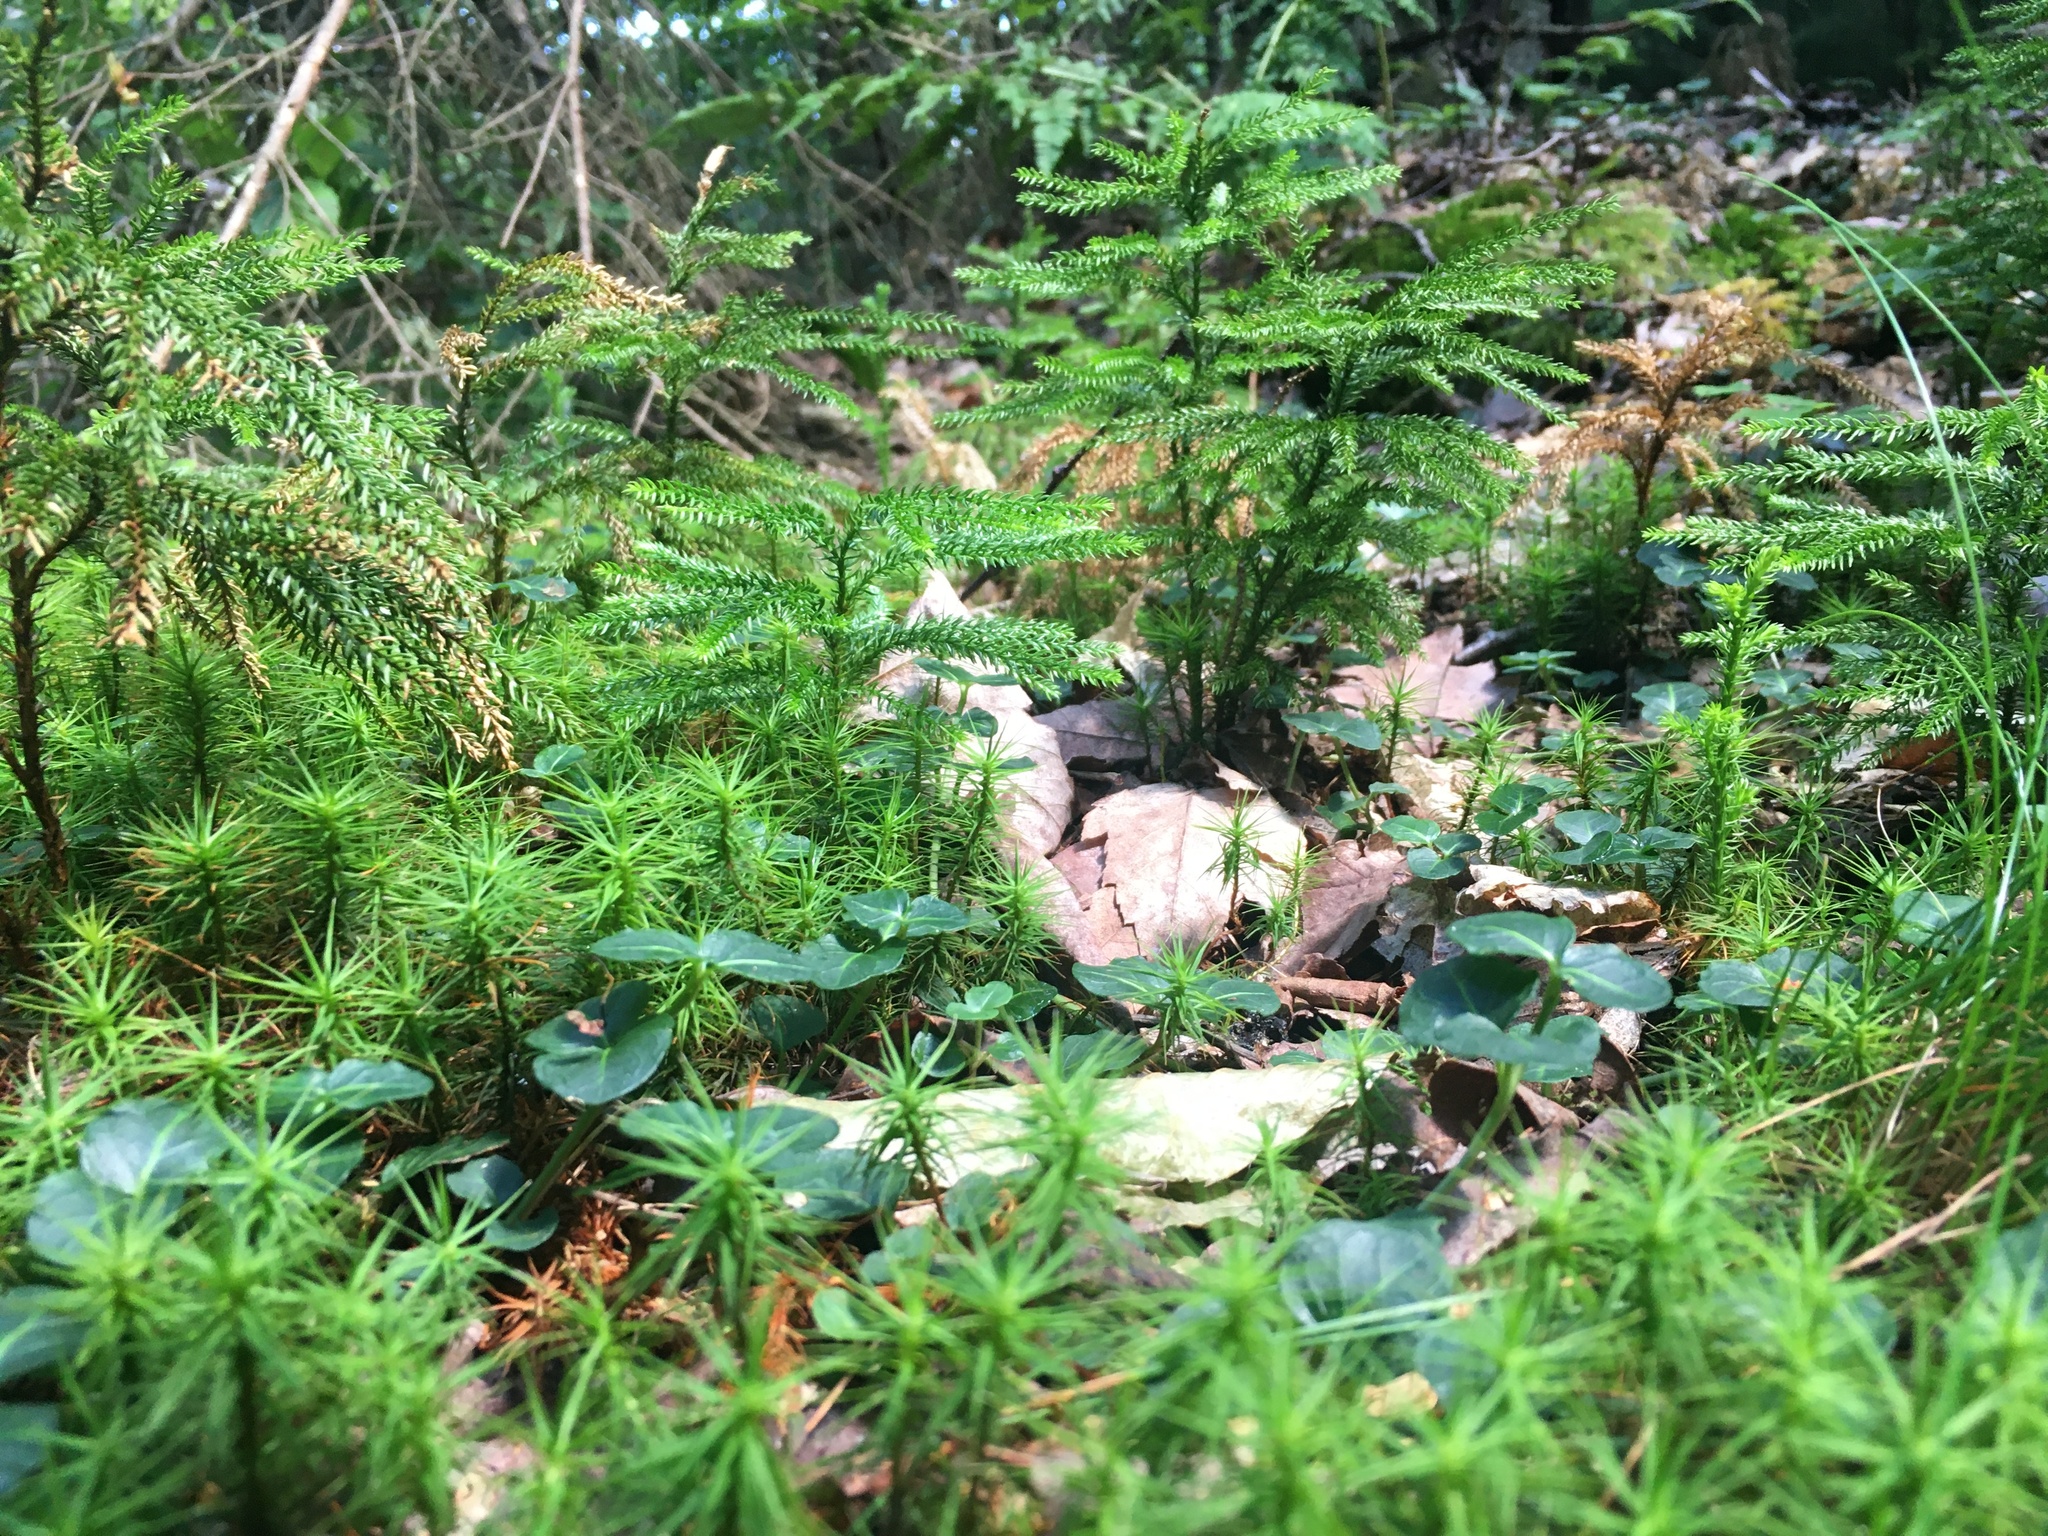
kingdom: Plantae
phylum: Tracheophyta
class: Magnoliopsida
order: Gentianales
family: Rubiaceae
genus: Mitchella
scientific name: Mitchella repens
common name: Partridge-berry
